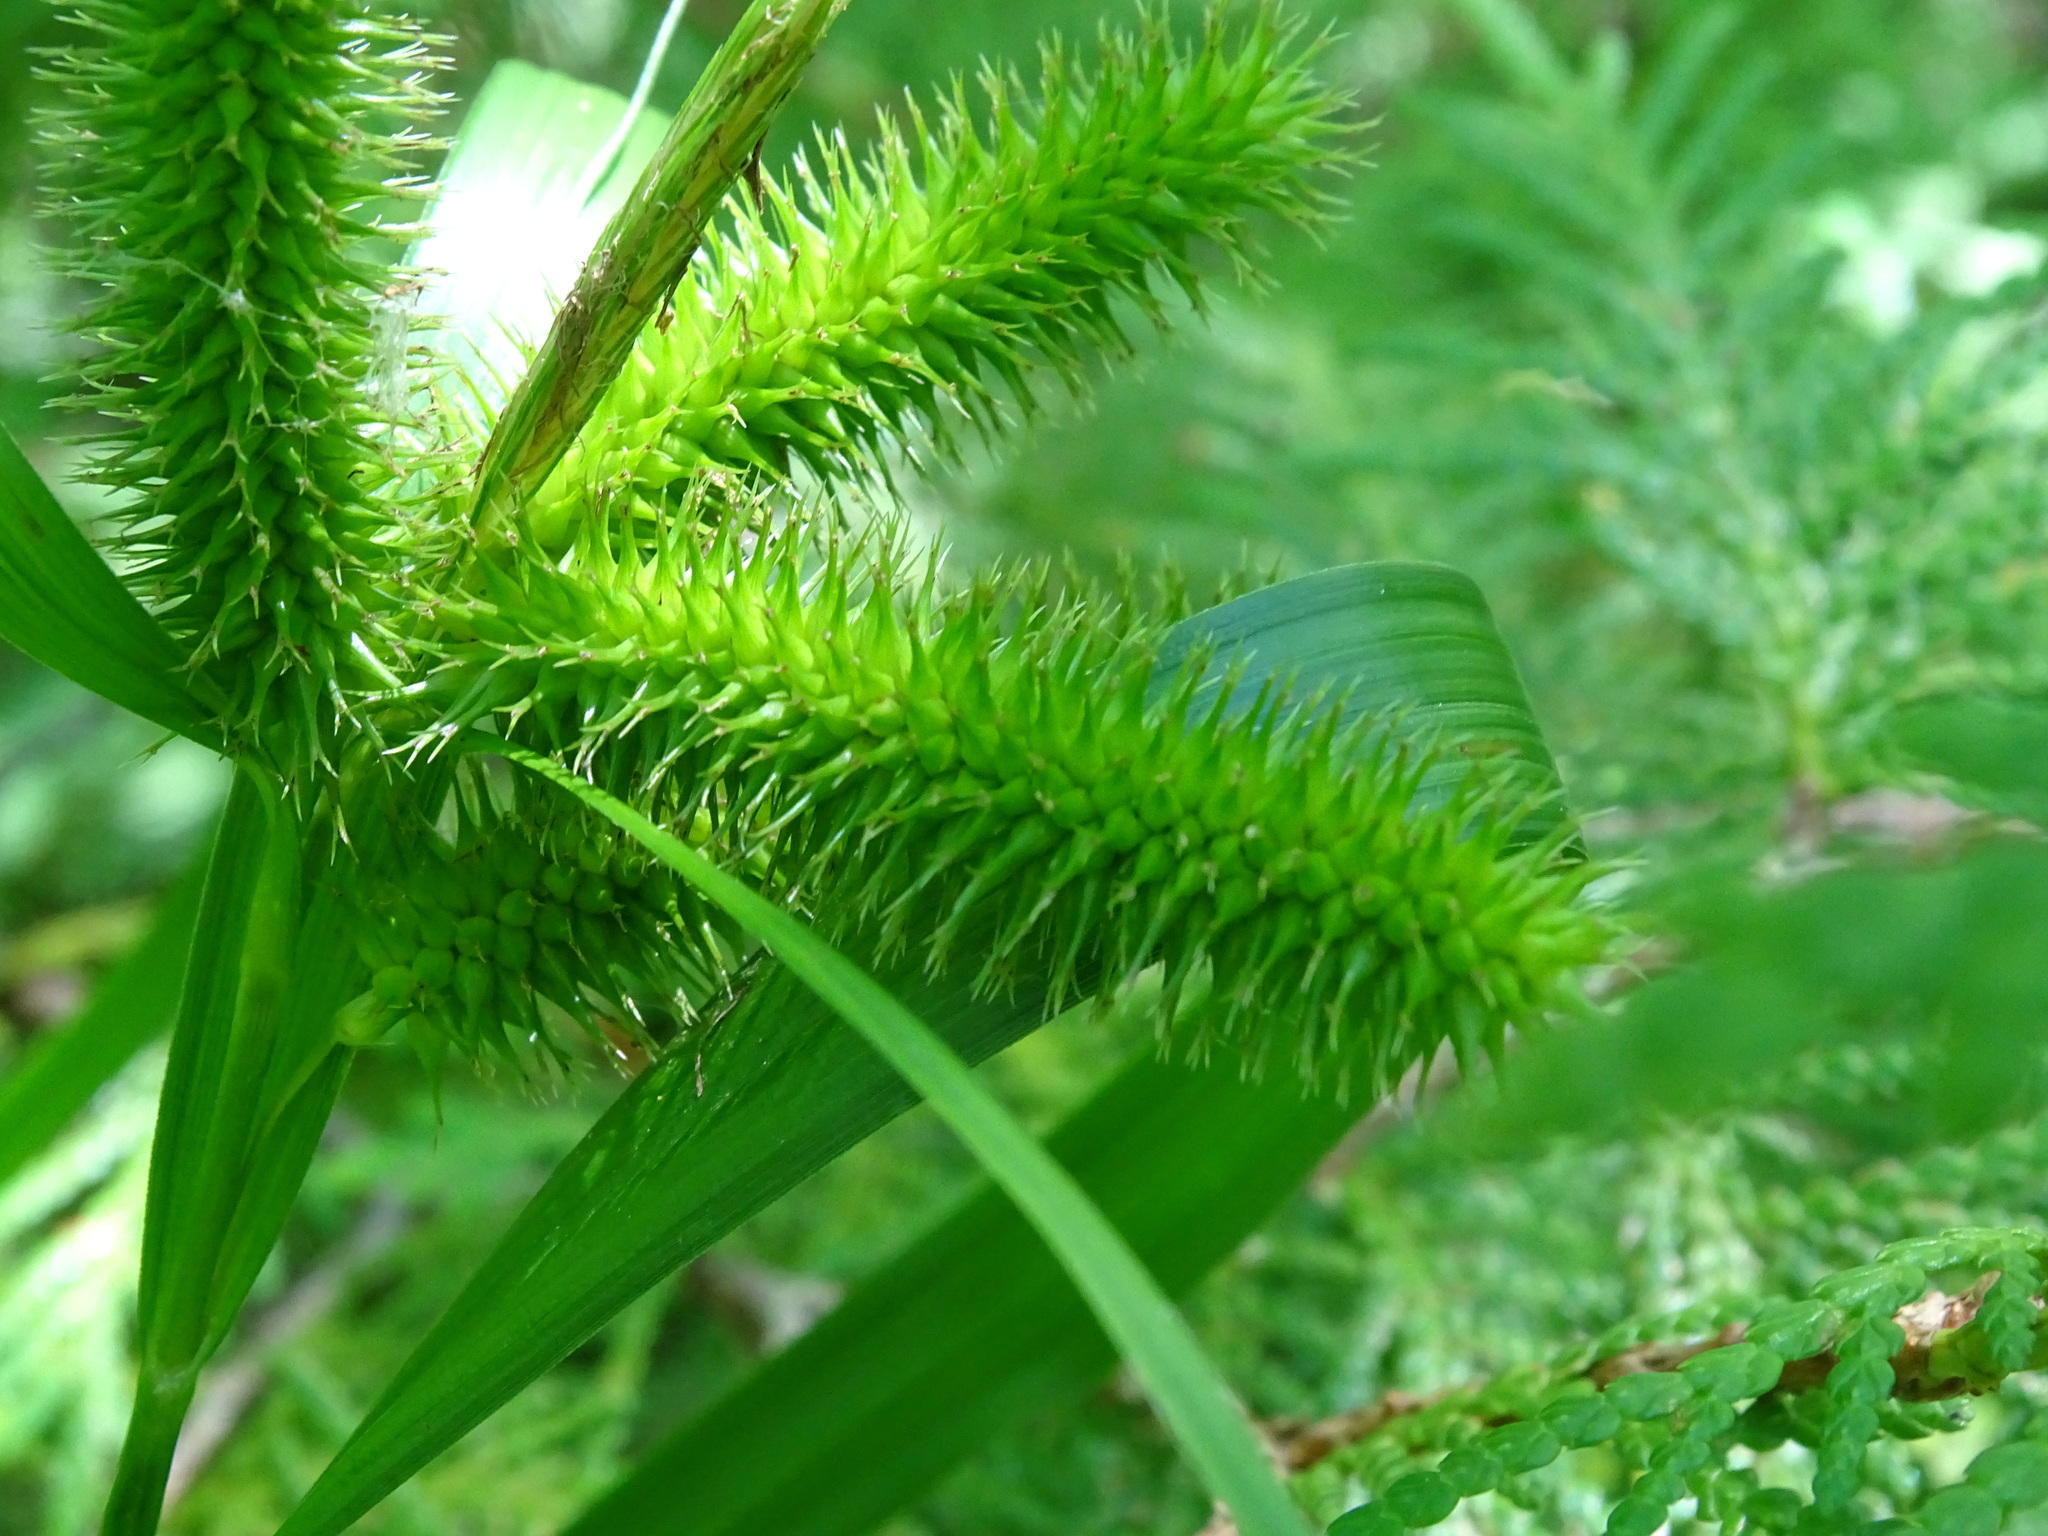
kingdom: Plantae
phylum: Tracheophyta
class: Liliopsida
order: Poales
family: Cyperaceae
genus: Carex
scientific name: Carex comosa
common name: Bristly sedge
